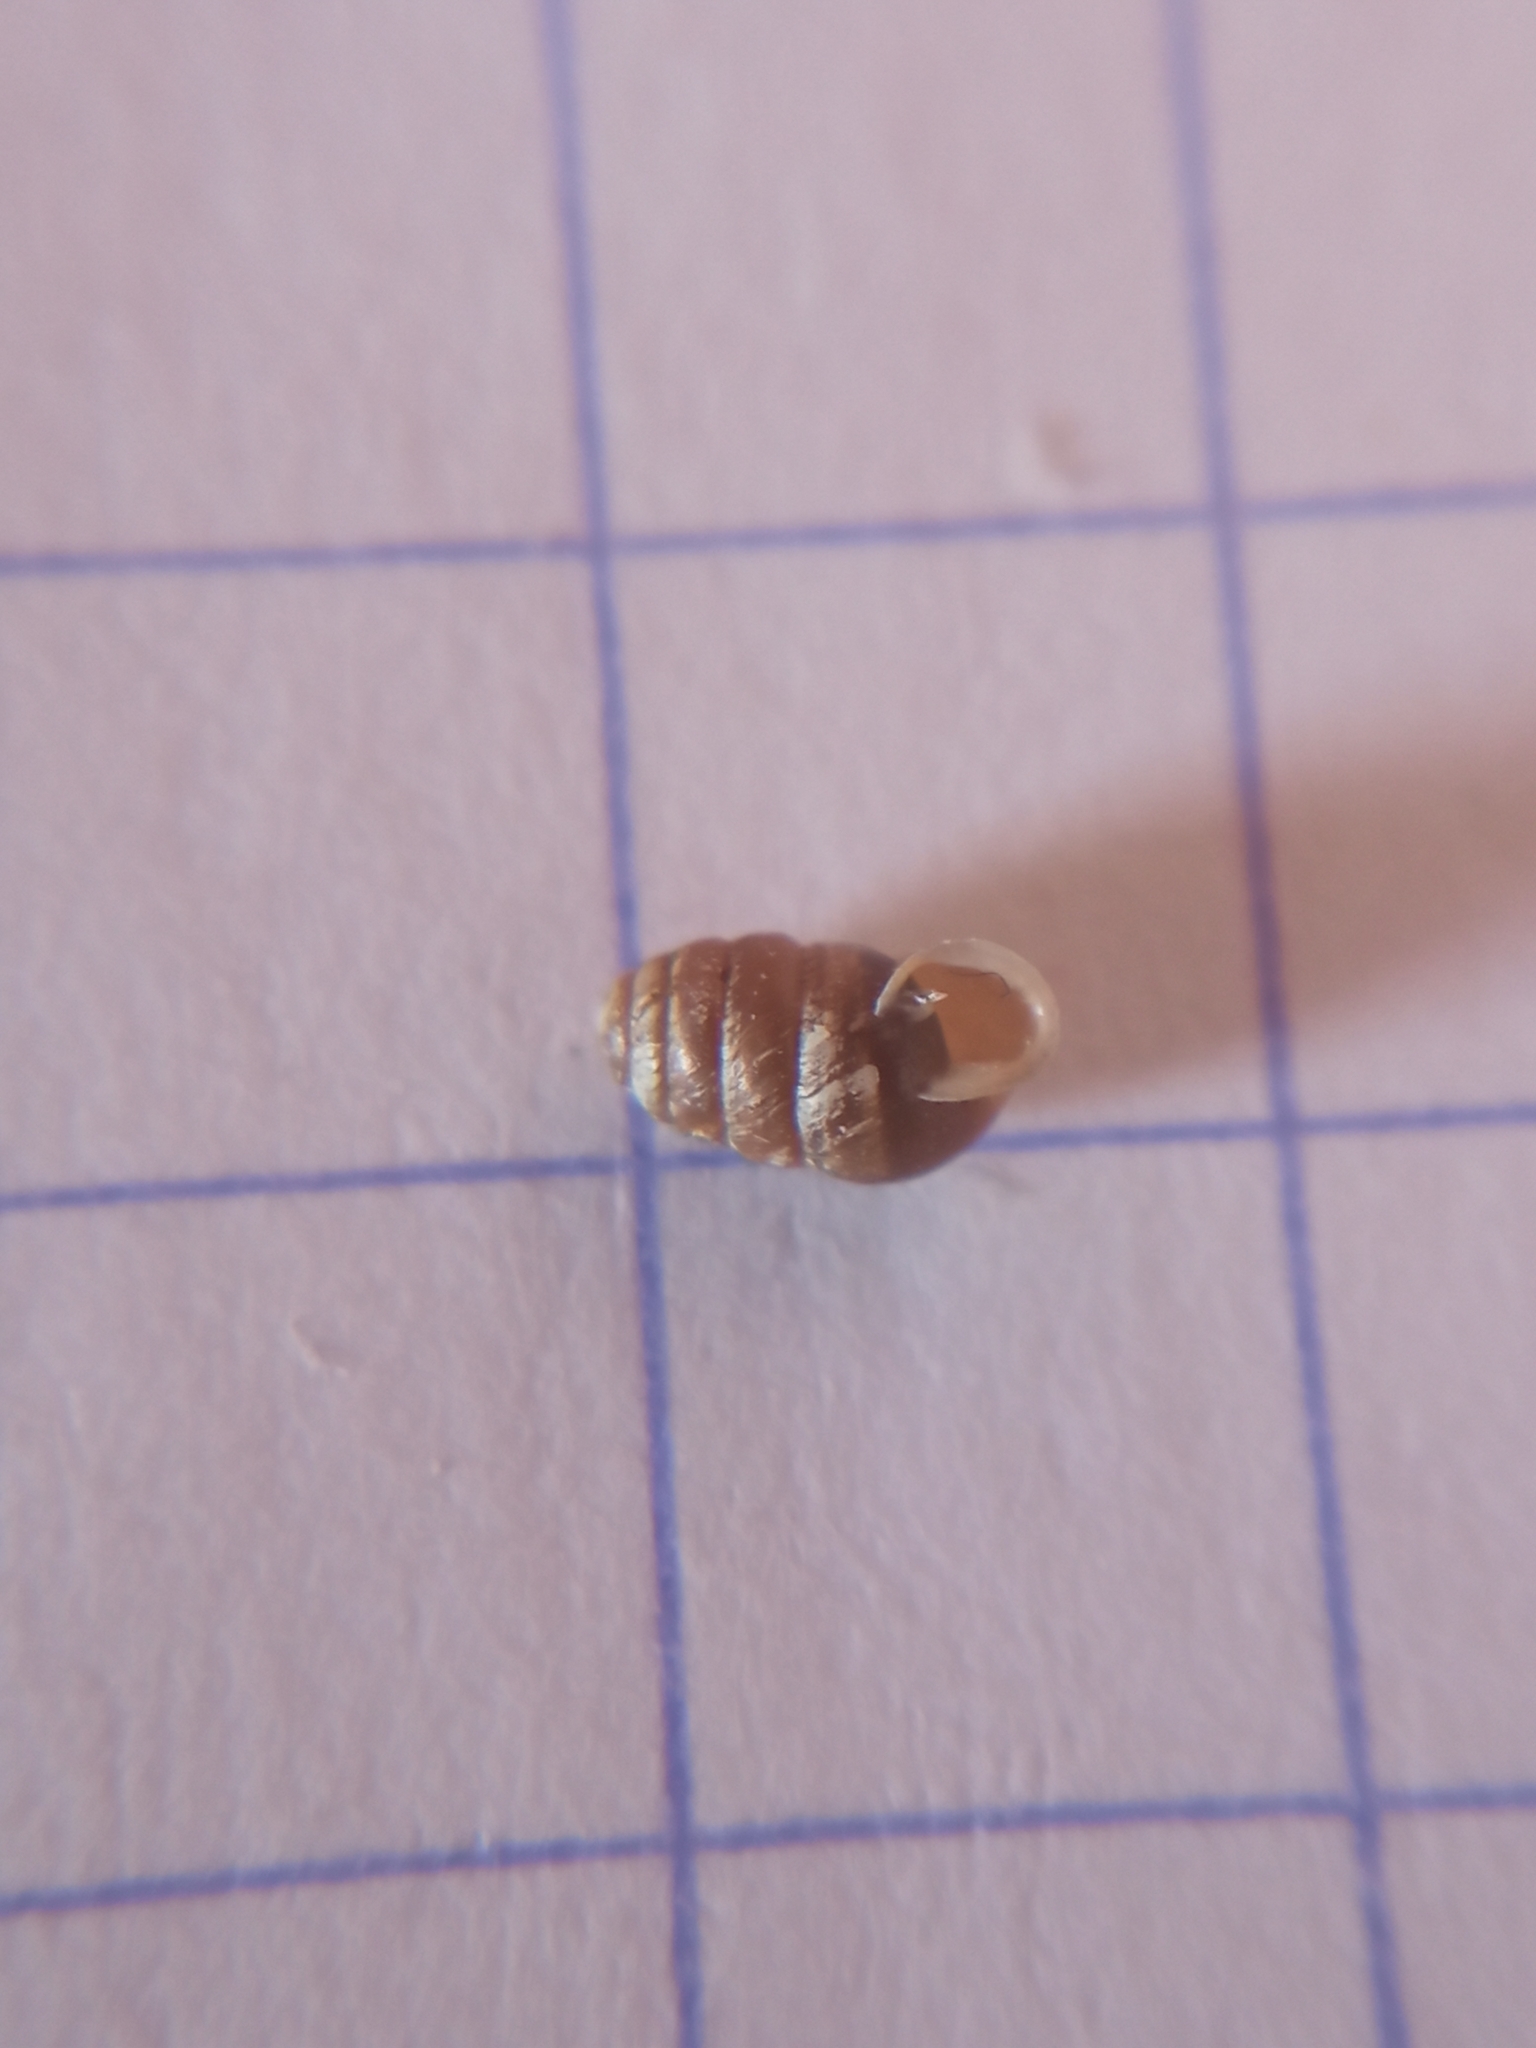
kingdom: Animalia
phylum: Mollusca
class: Gastropoda
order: Stylommatophora
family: Lauriidae
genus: Lauria
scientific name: Lauria cylindracea
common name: Common chrysalis snail
